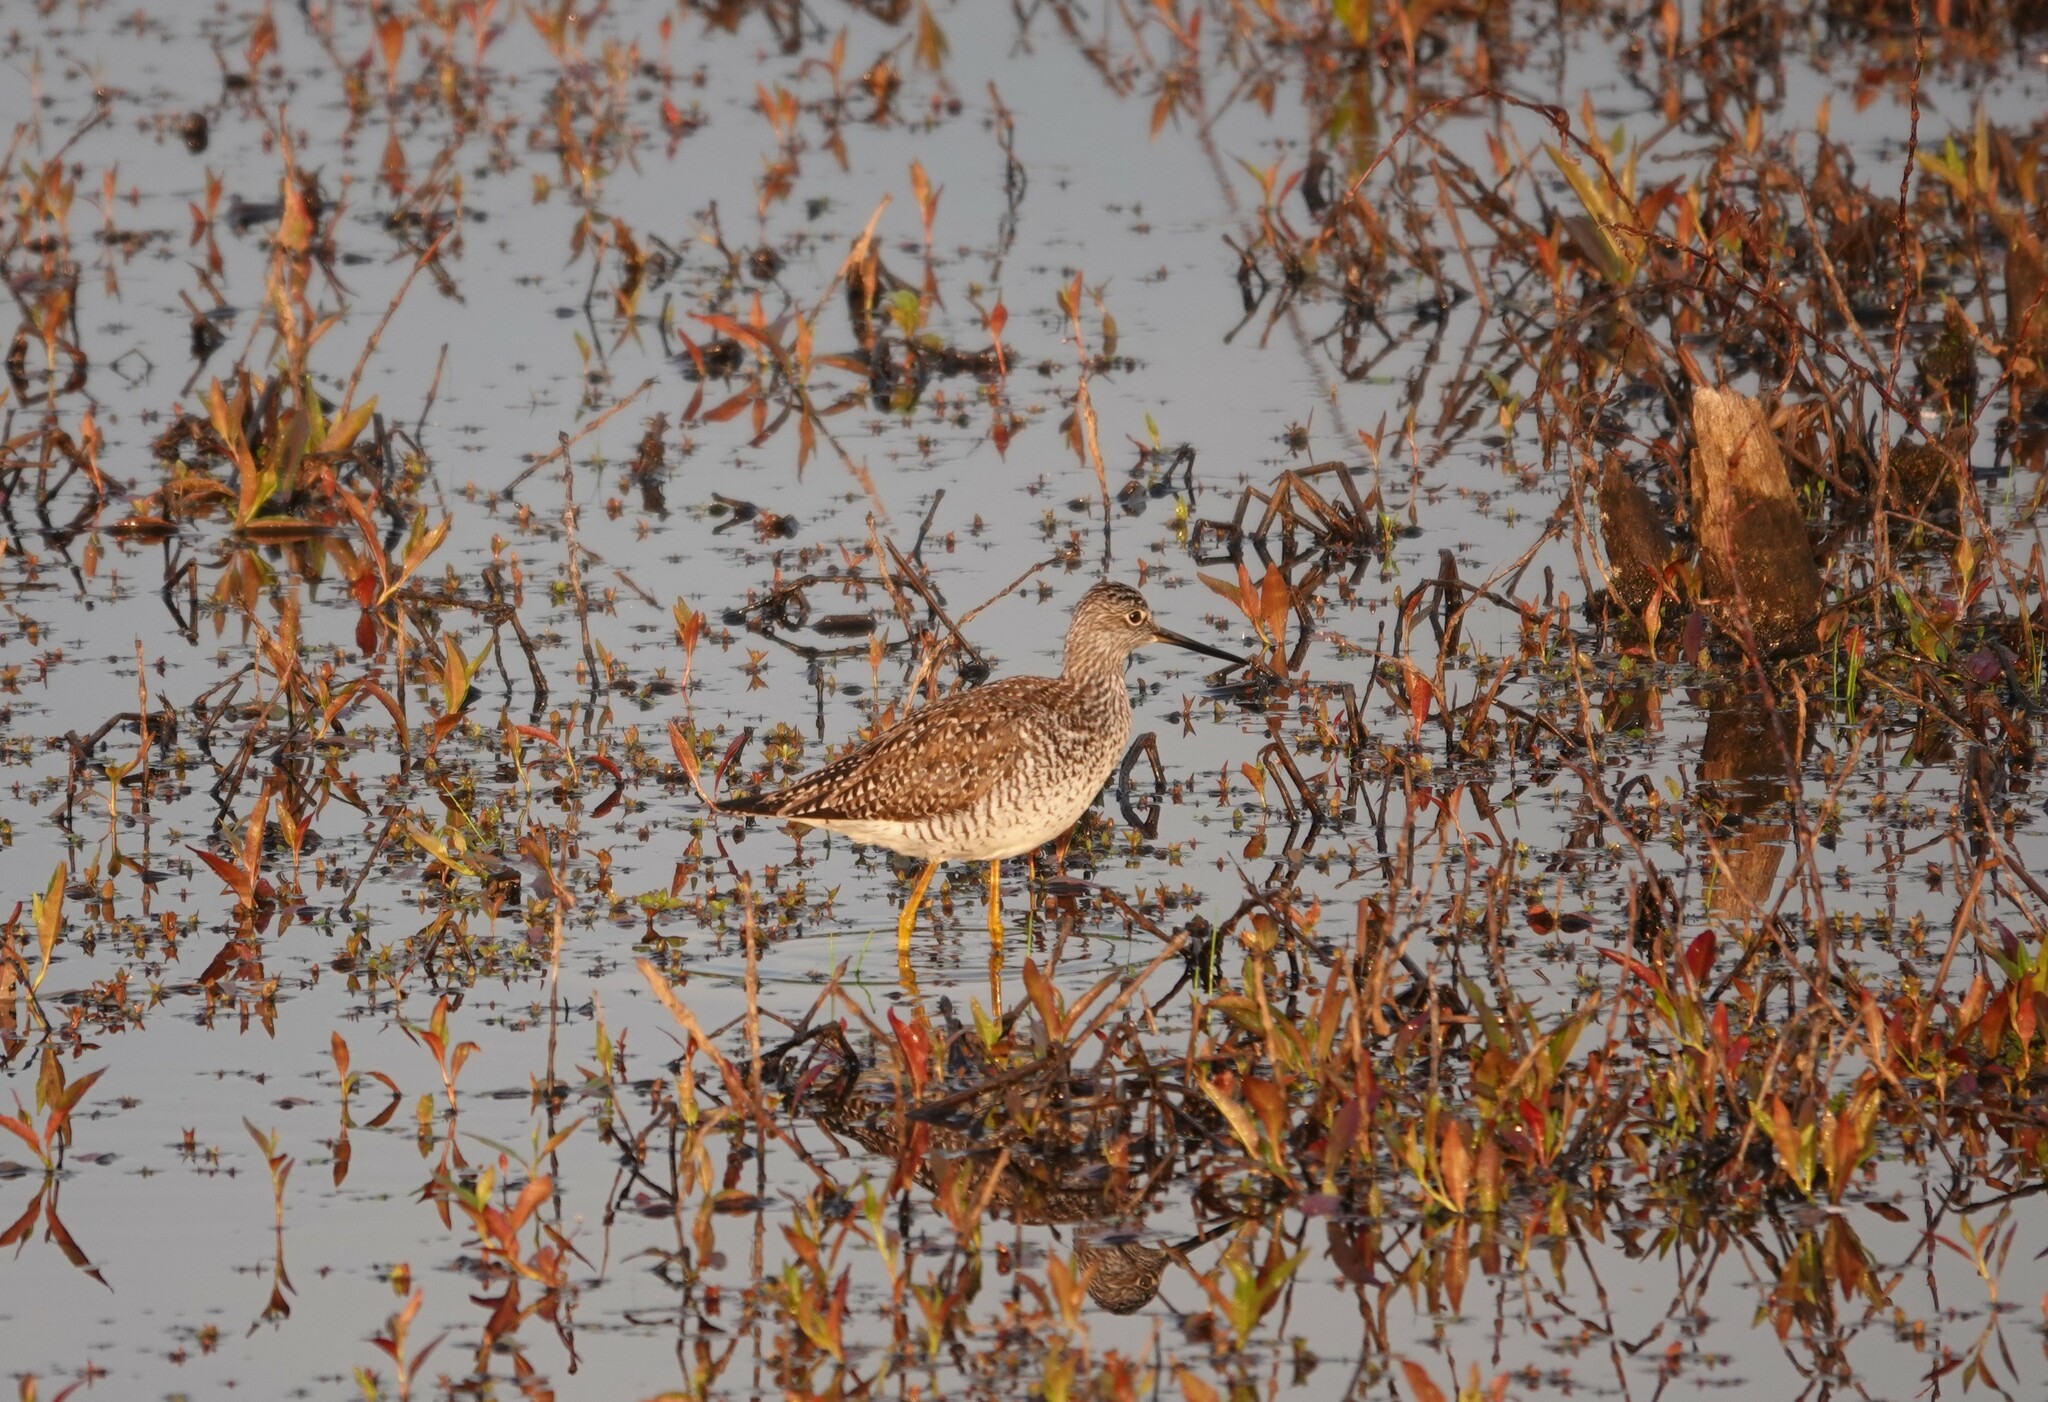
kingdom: Animalia
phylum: Chordata
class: Aves
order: Charadriiformes
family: Scolopacidae
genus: Tringa
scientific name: Tringa melanoleuca
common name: Greater yellowlegs
